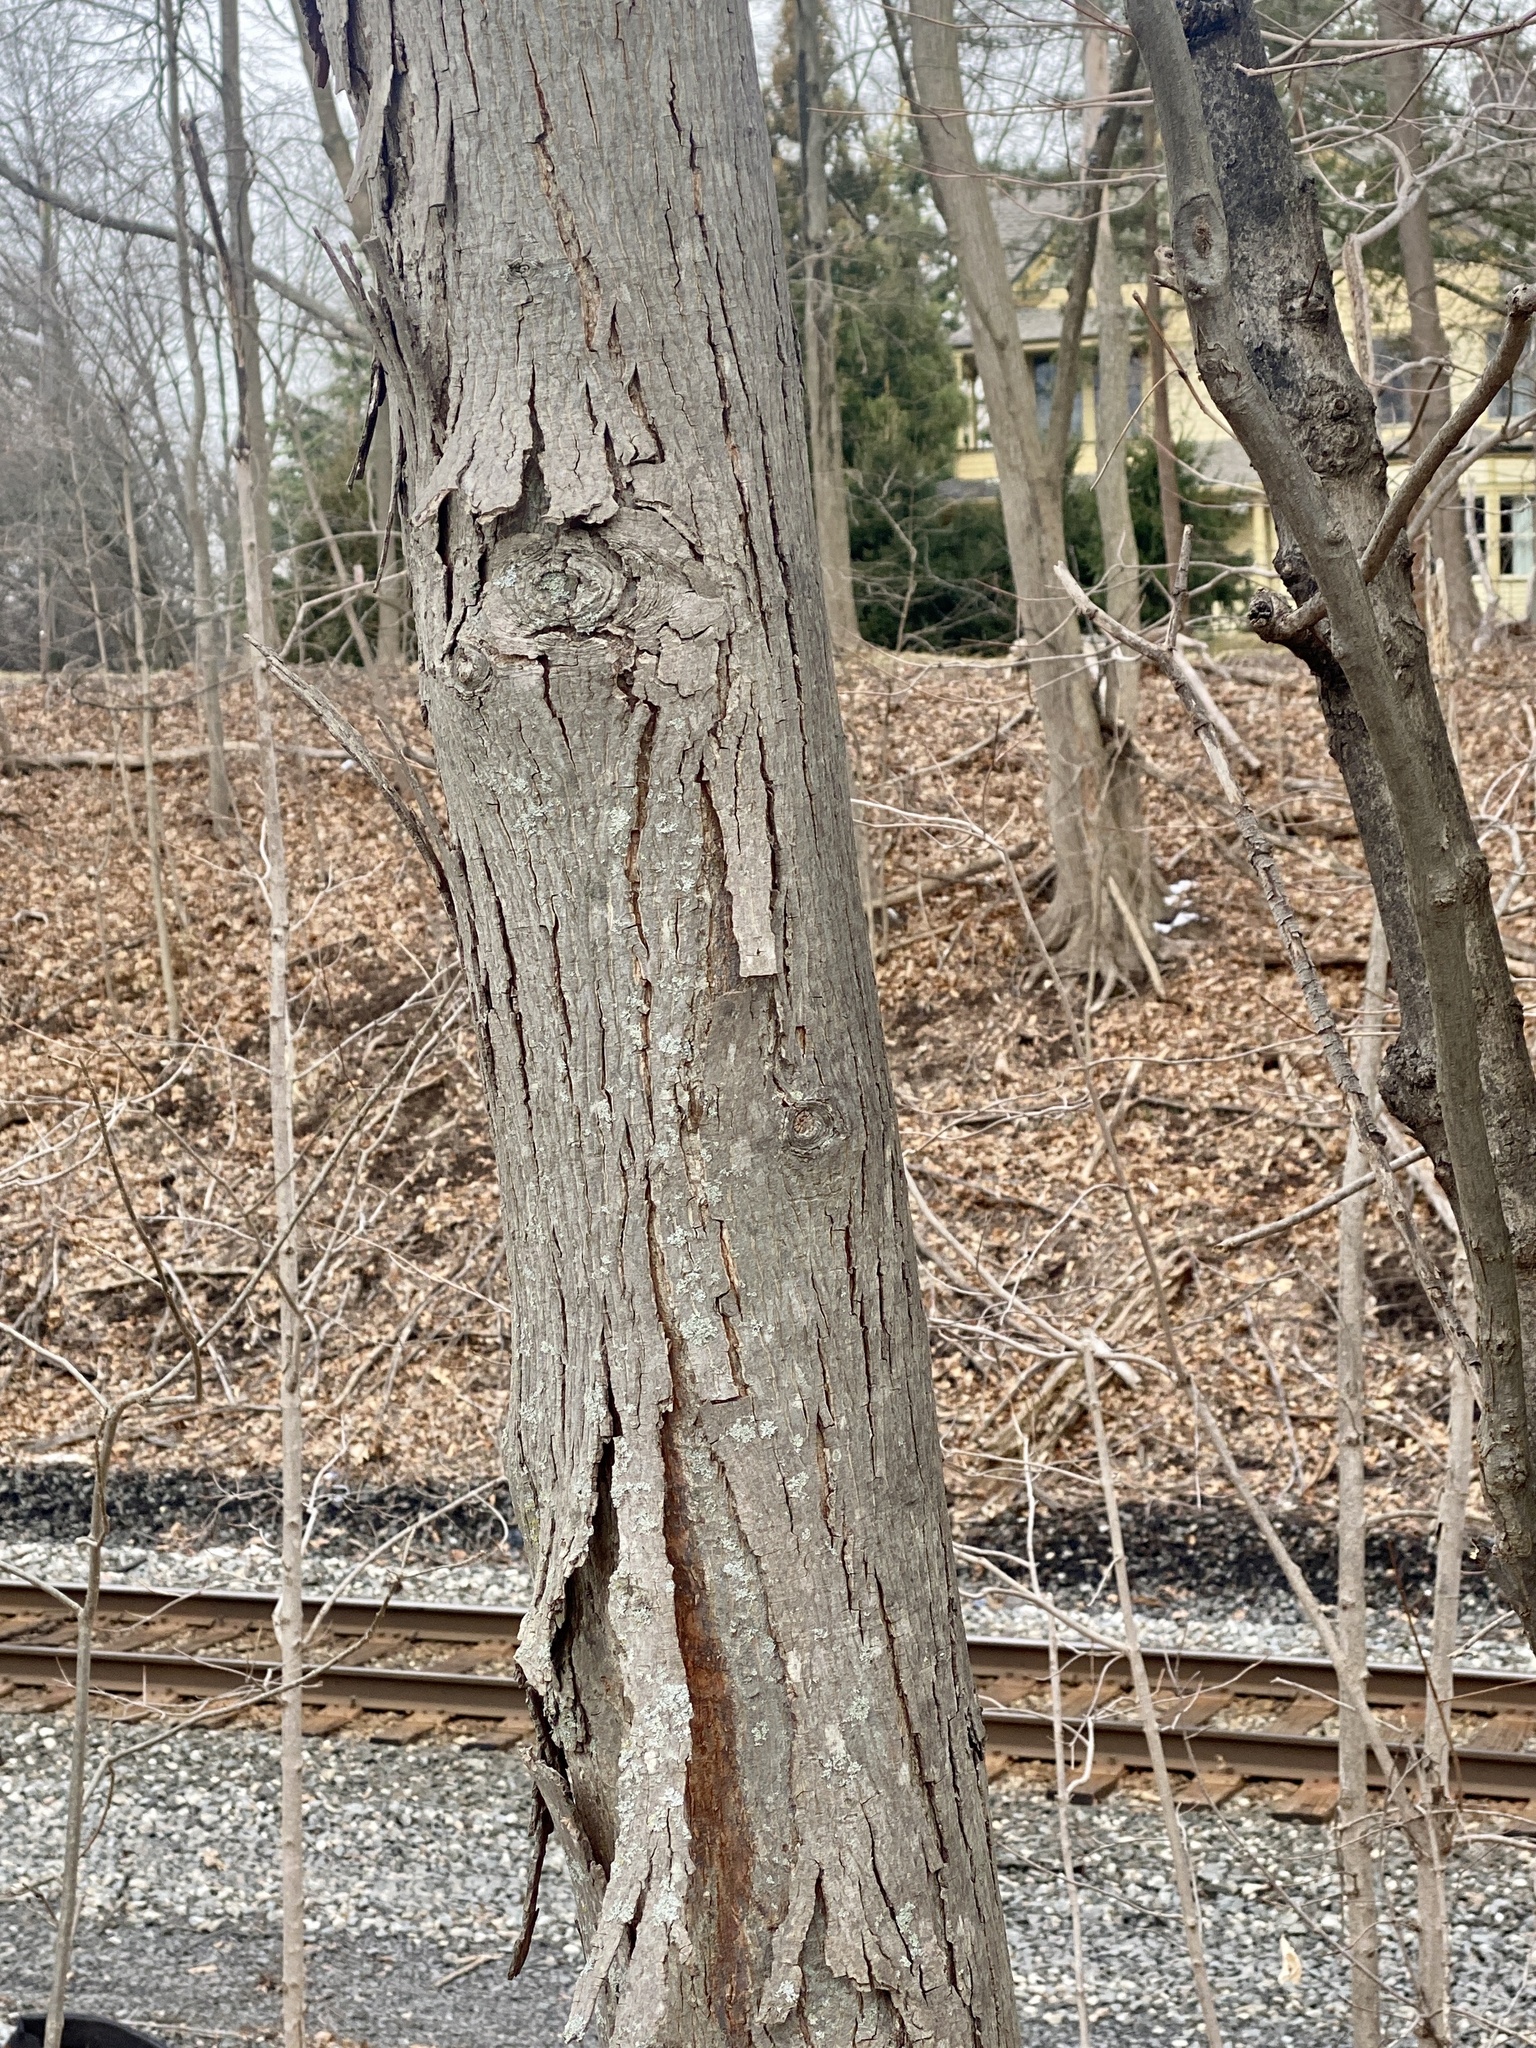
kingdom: Plantae
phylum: Tracheophyta
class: Magnoliopsida
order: Fagales
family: Juglandaceae
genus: Carya
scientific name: Carya ovata
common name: Shagbark hickory
